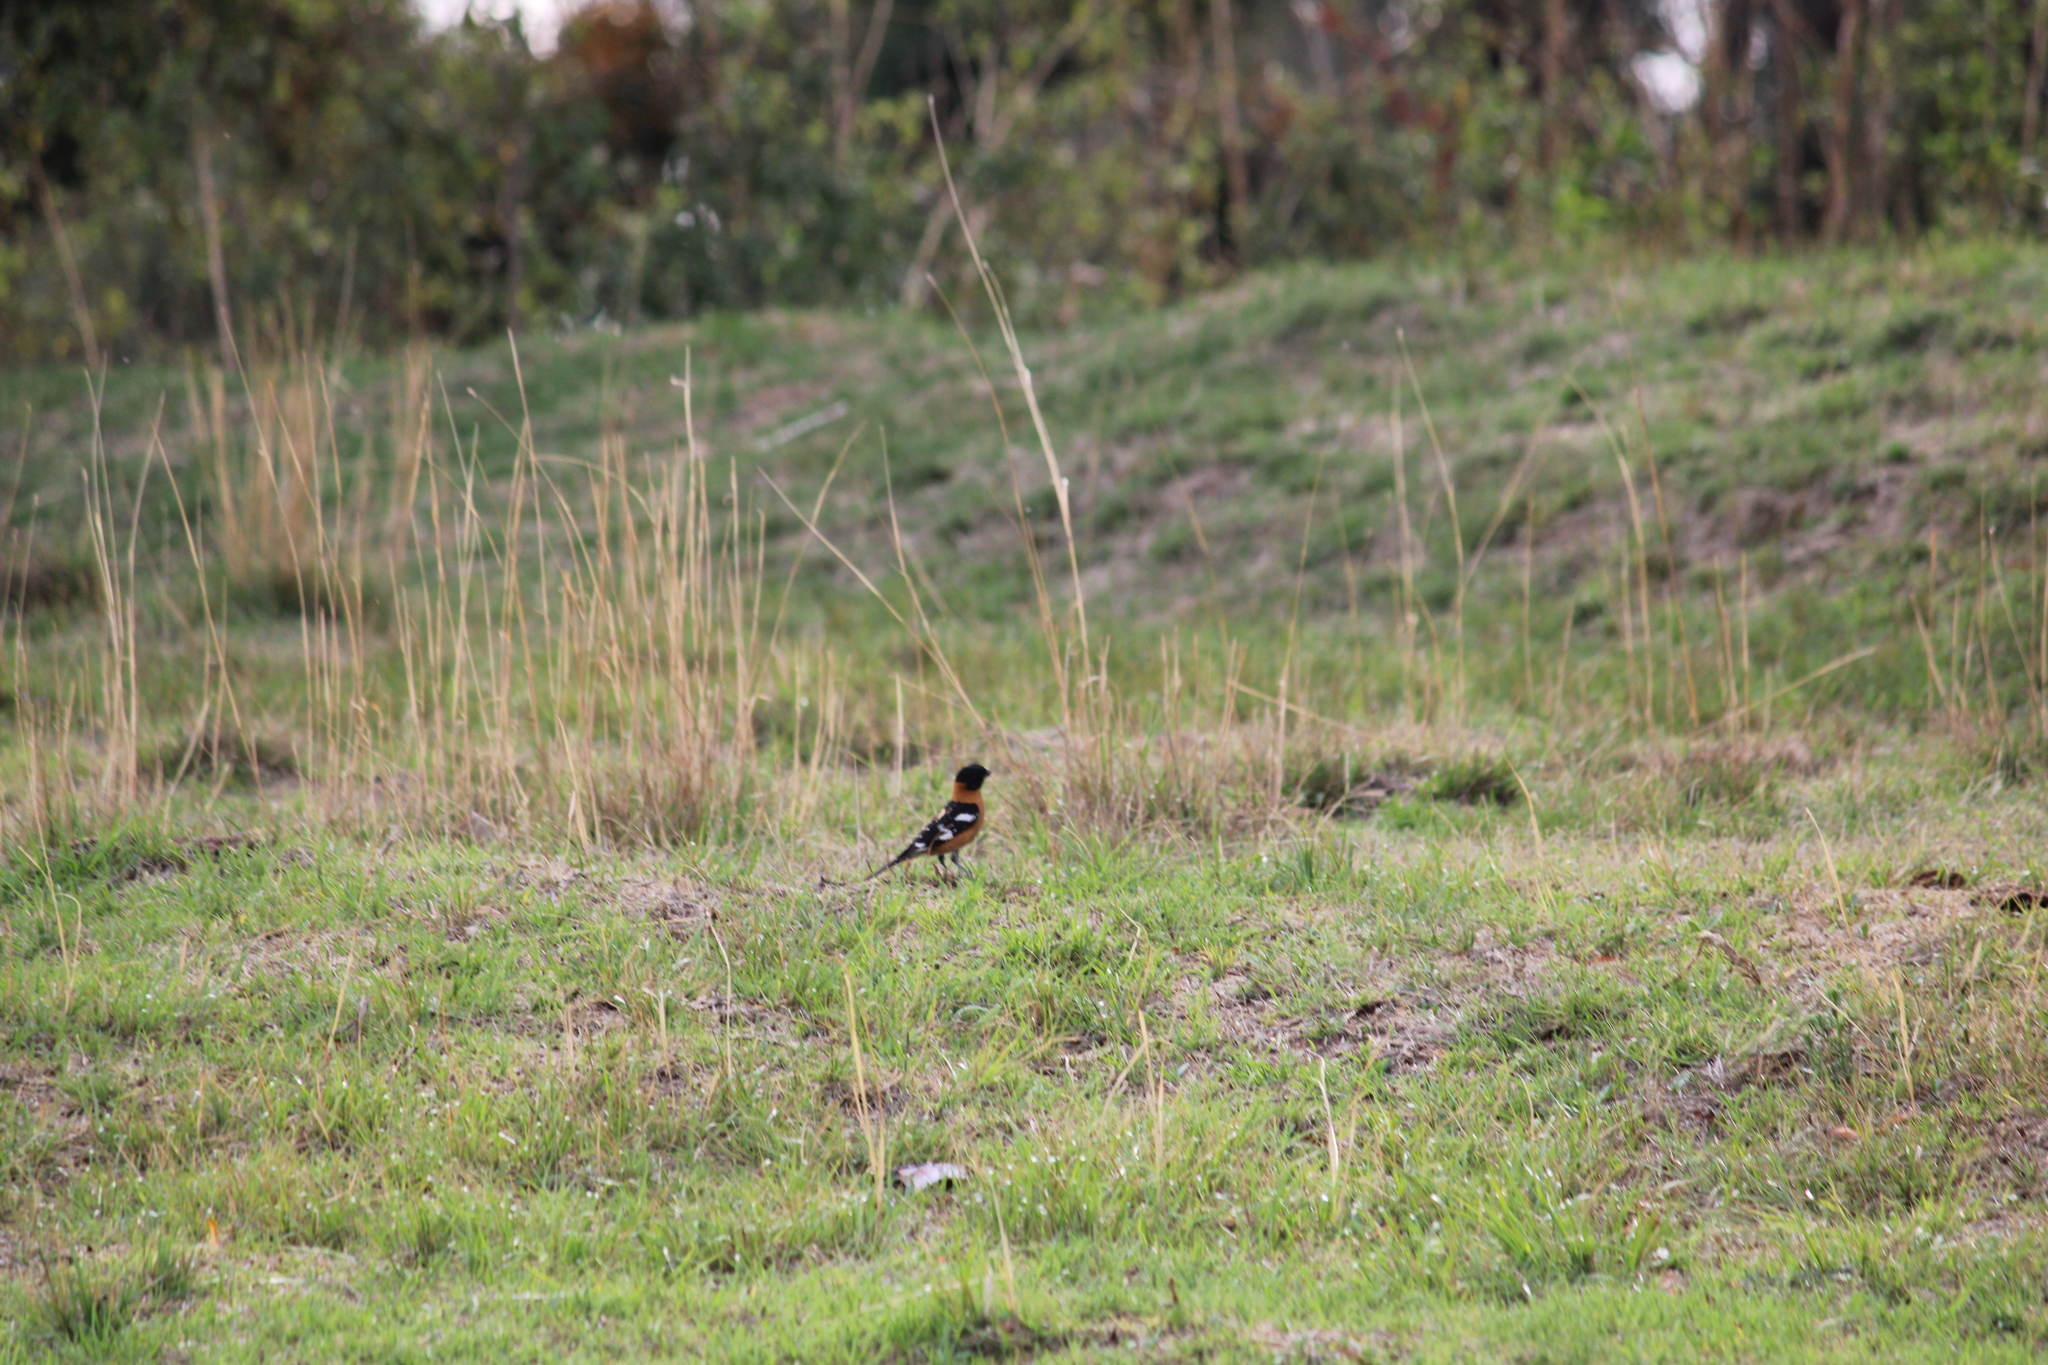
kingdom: Animalia
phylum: Chordata
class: Aves
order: Passeriformes
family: Cardinalidae
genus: Pheucticus
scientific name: Pheucticus melanocephalus
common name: Black-headed grosbeak
